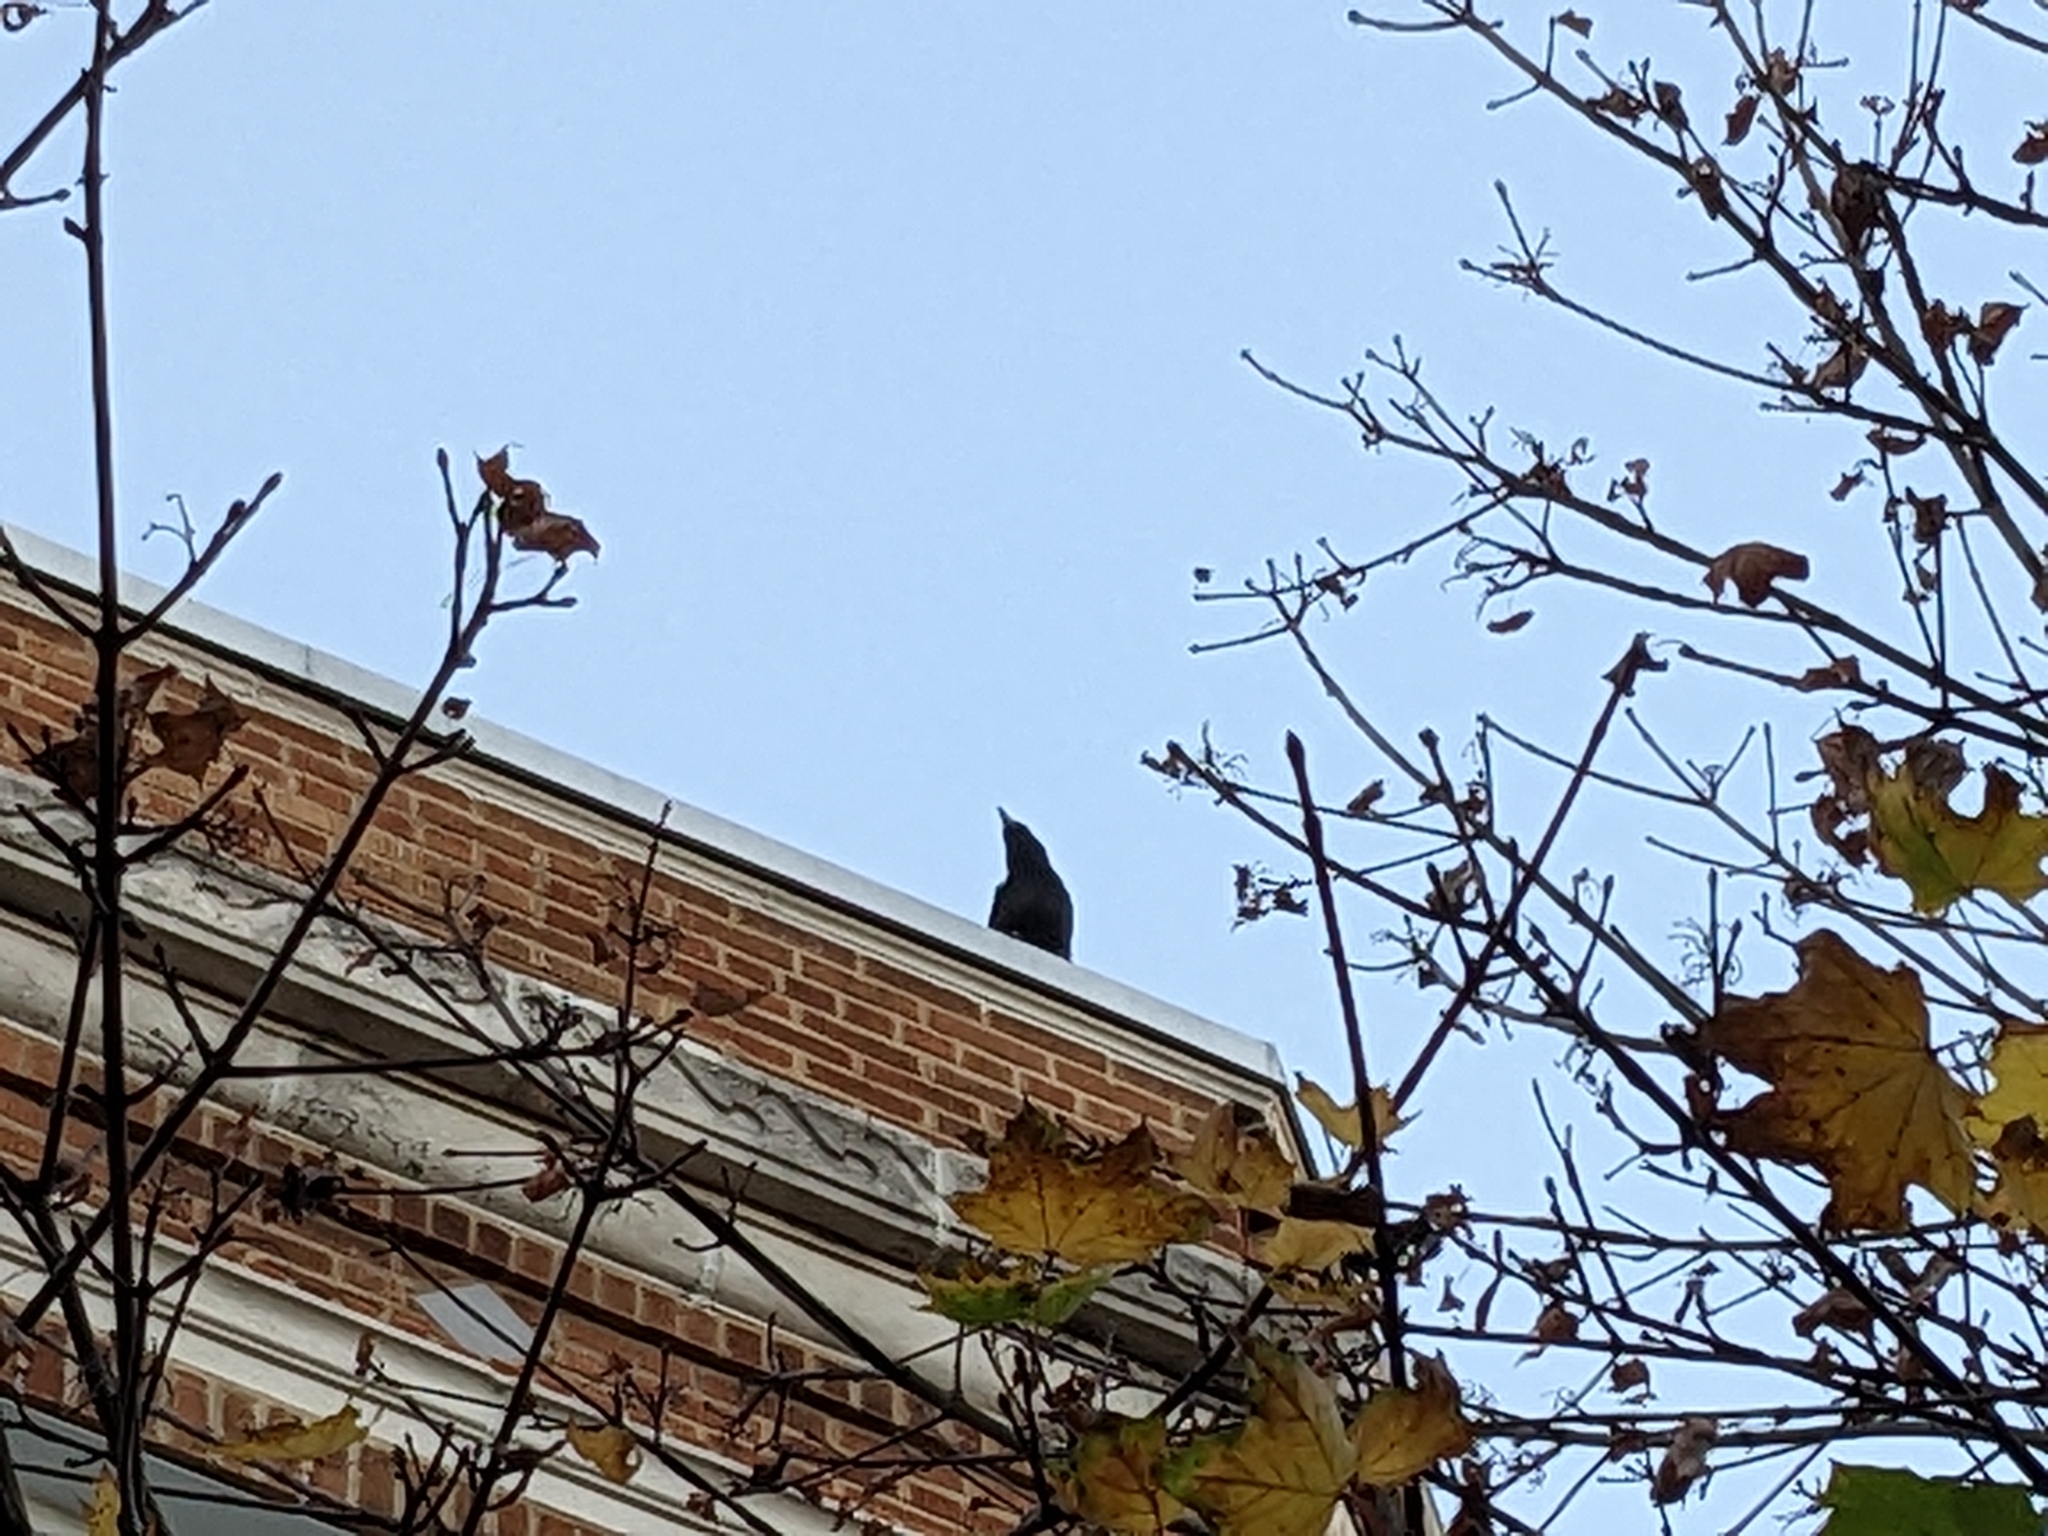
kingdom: Animalia
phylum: Chordata
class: Aves
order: Passeriformes
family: Corvidae
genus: Corvus
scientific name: Corvus brachyrhynchos
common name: American crow
